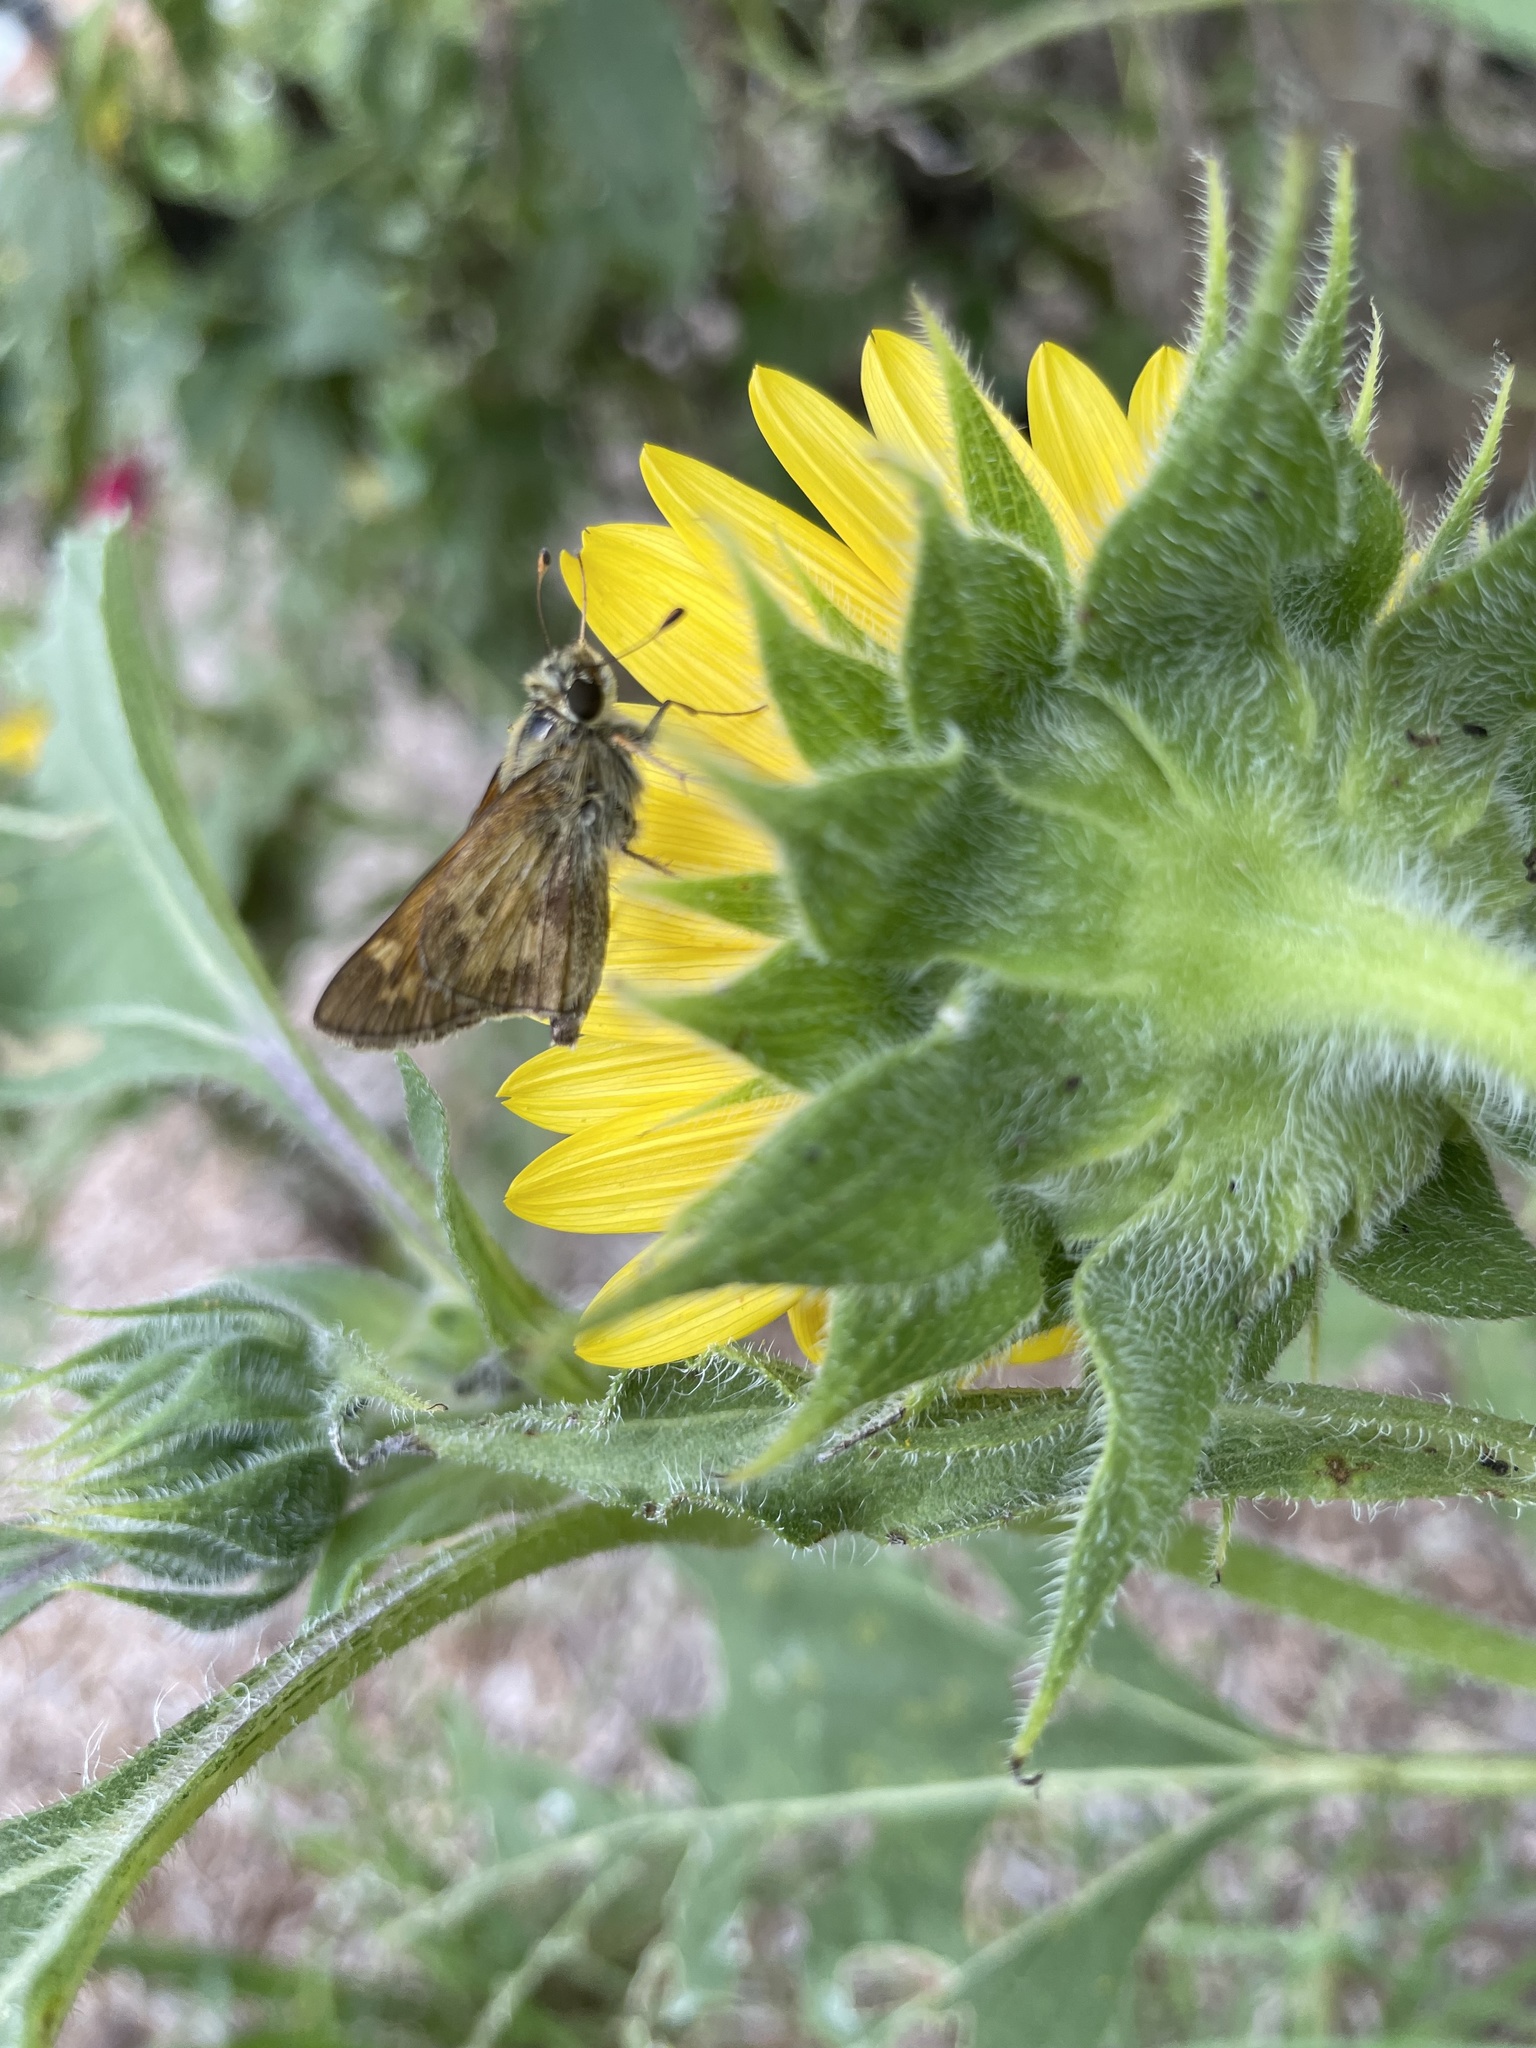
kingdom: Animalia
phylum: Arthropoda
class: Insecta
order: Lepidoptera
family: Hesperiidae
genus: Atalopedes
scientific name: Atalopedes
